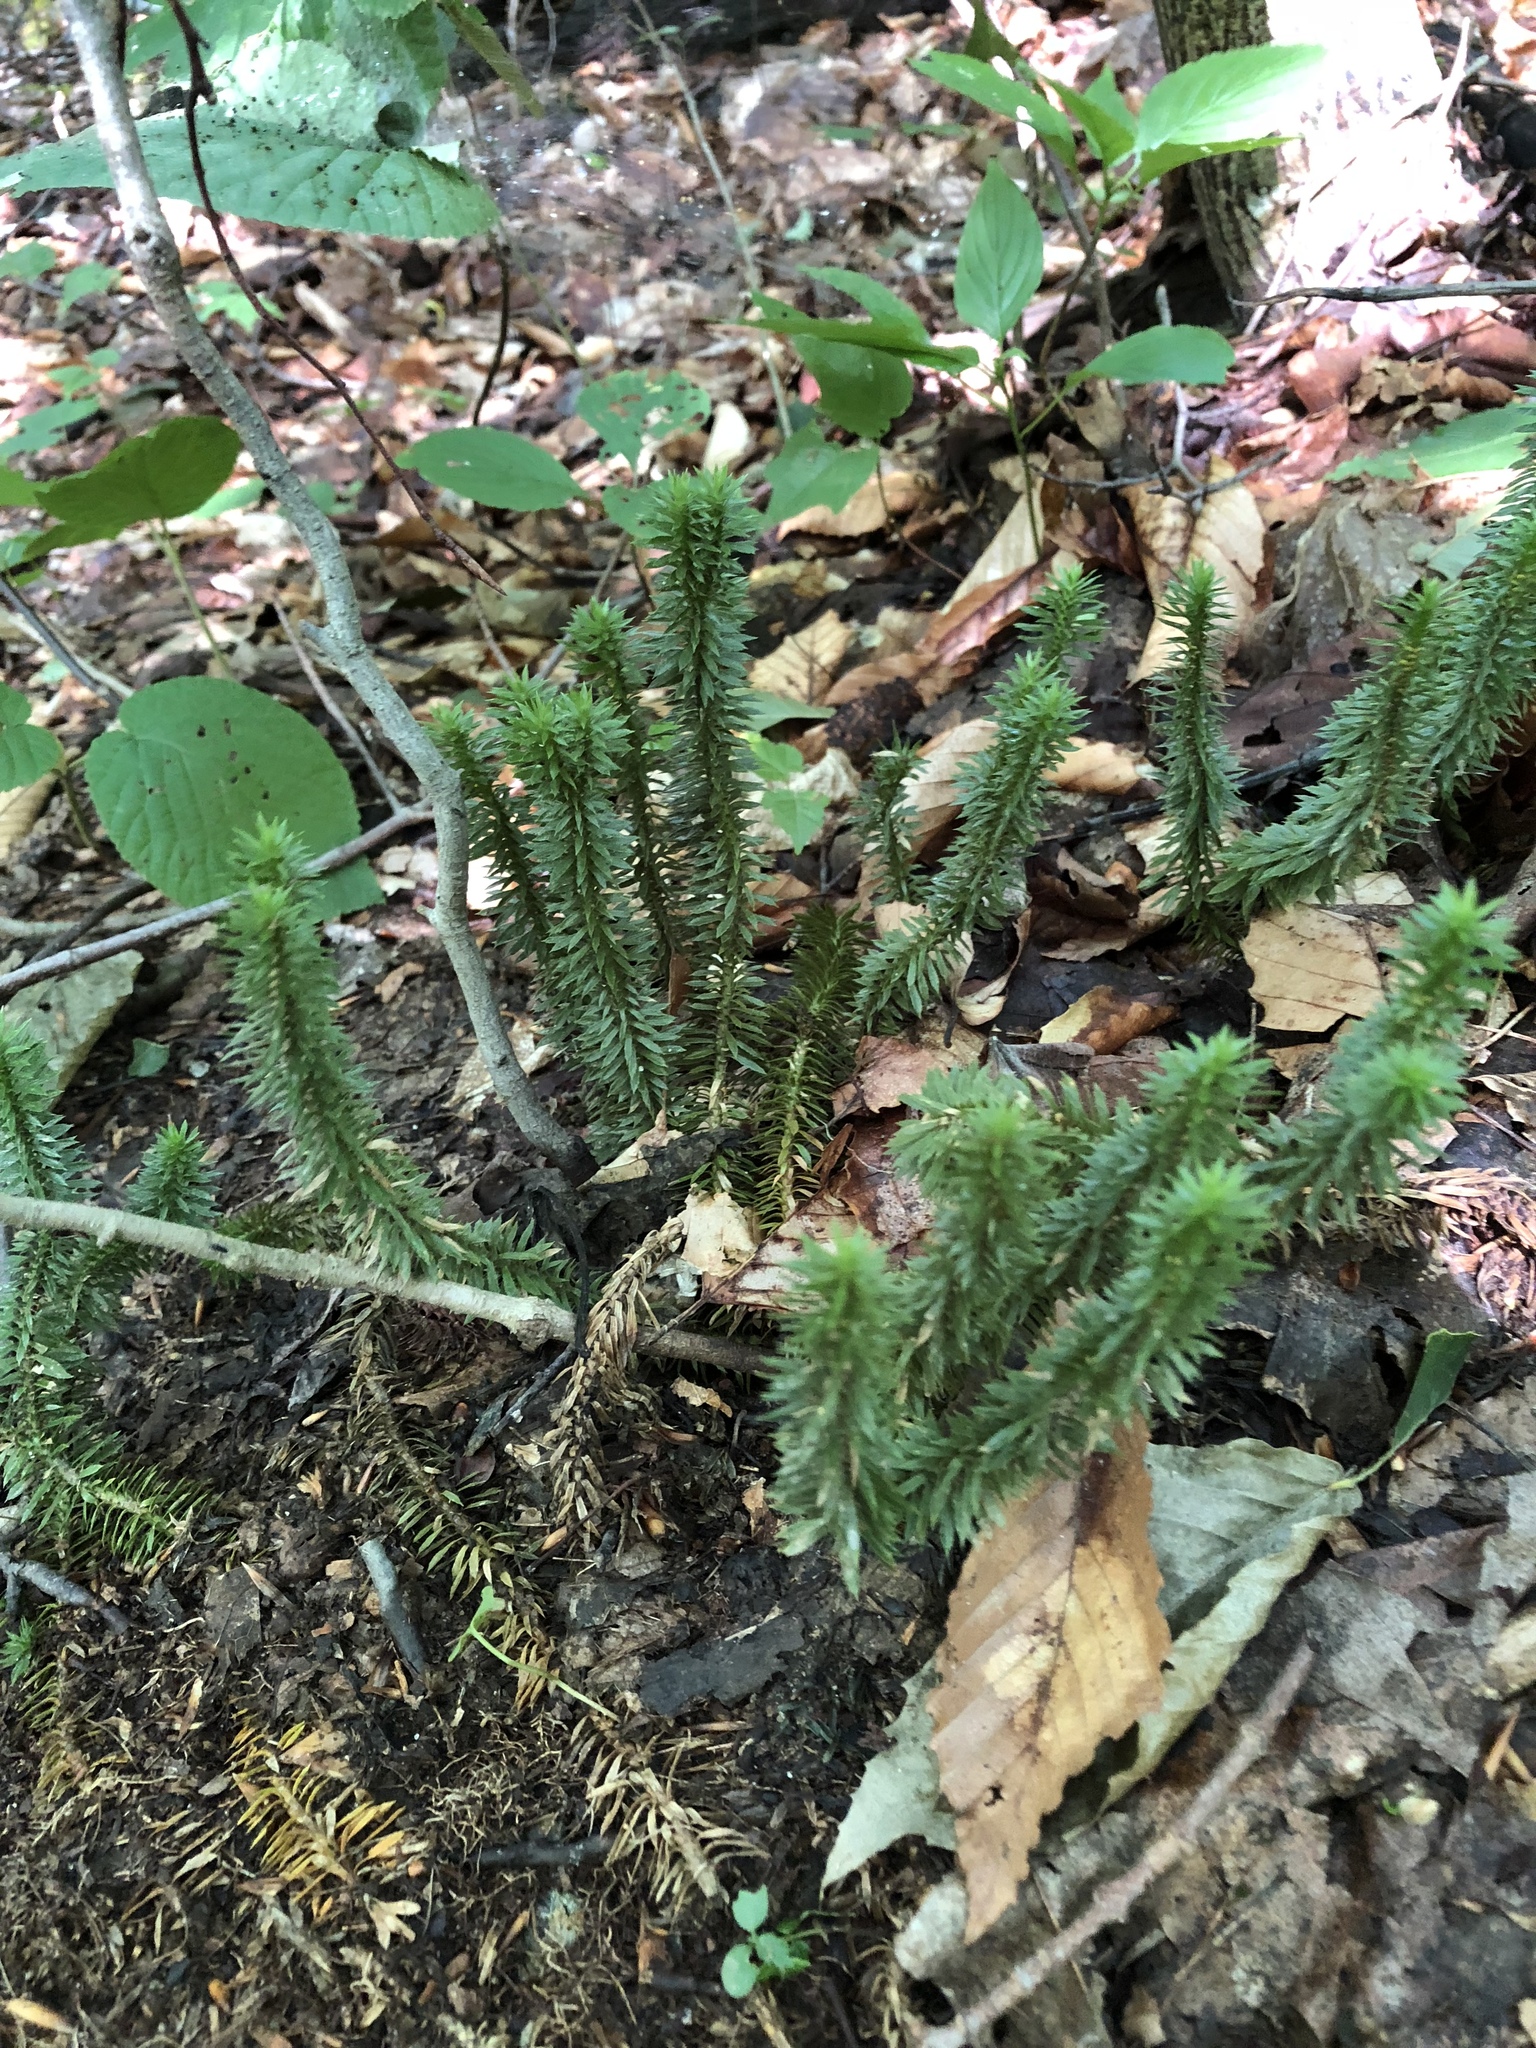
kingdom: Plantae
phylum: Tracheophyta
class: Lycopodiopsida
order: Lycopodiales
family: Lycopodiaceae
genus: Huperzia
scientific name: Huperzia lucidula
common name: Shining clubmoss
